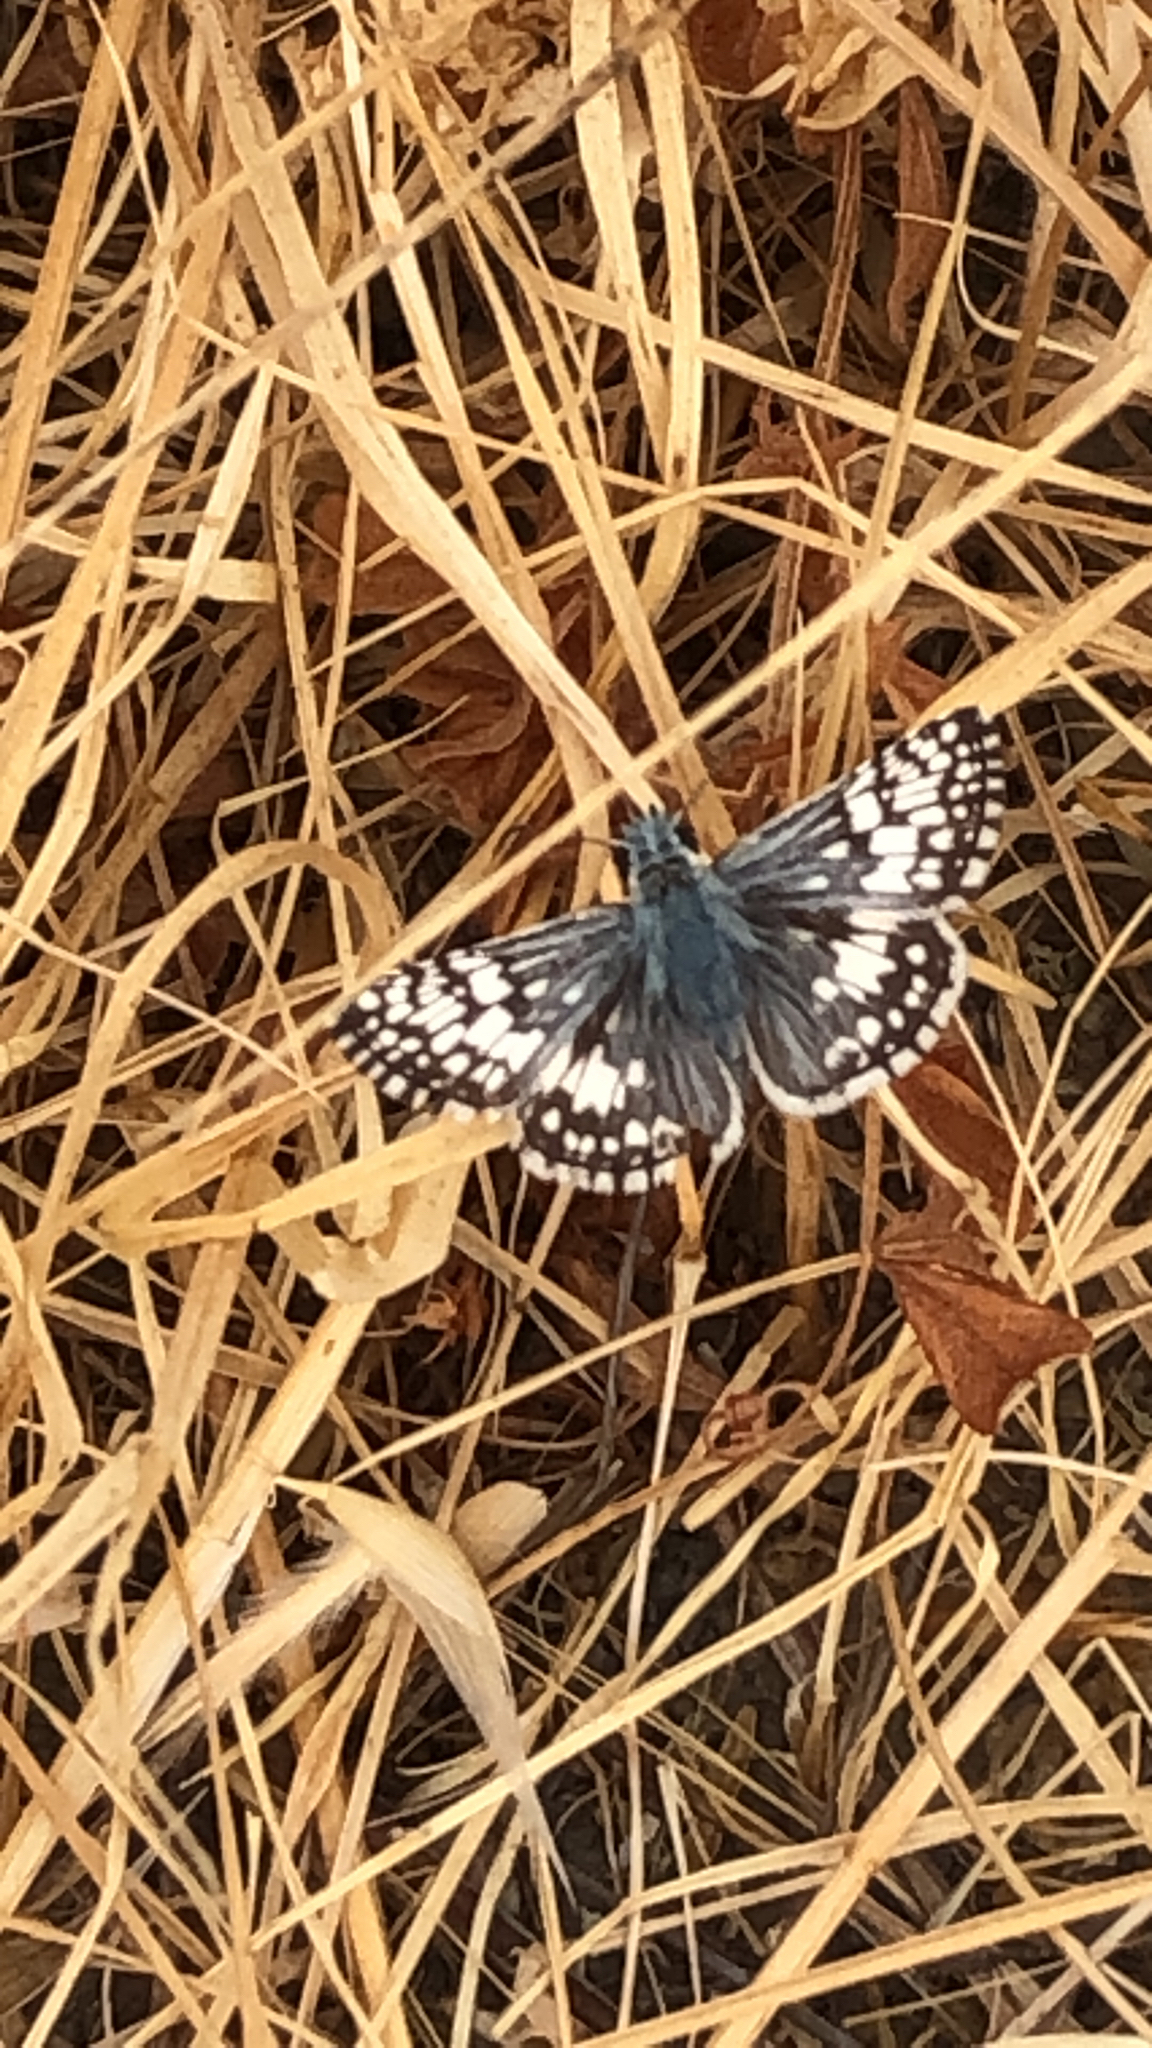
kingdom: Animalia
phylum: Arthropoda
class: Insecta
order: Lepidoptera
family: Hesperiidae
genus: Burnsius
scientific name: Burnsius communis
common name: Common checkered-skipper
